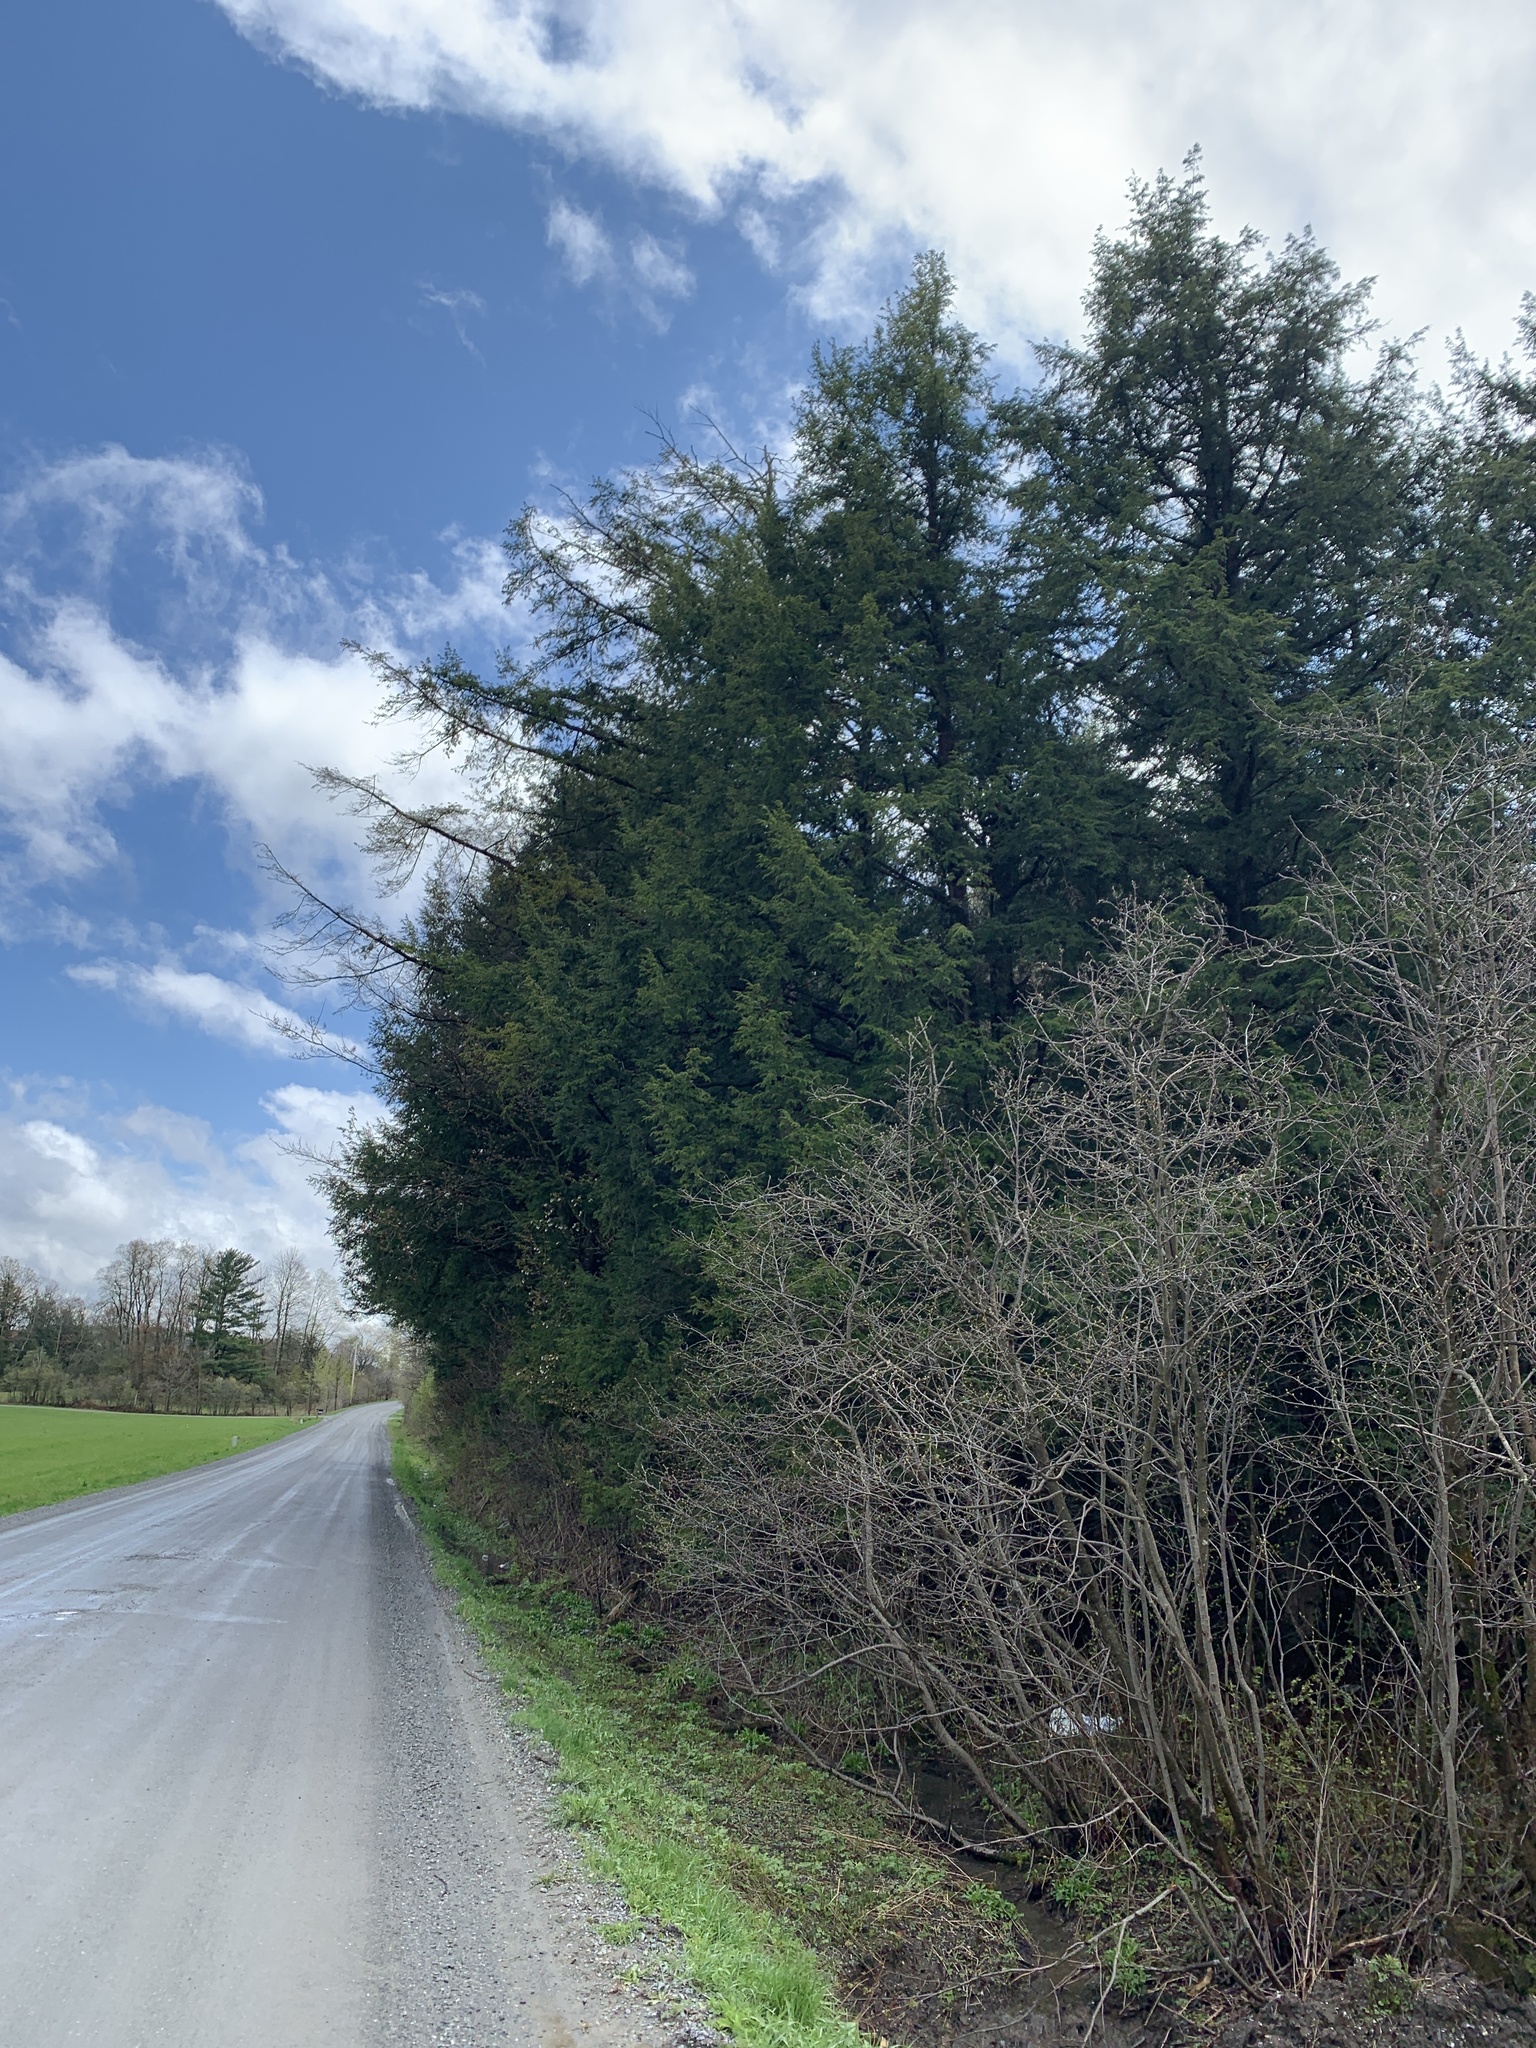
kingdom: Plantae
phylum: Tracheophyta
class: Pinopsida
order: Pinales
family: Pinaceae
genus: Tsuga
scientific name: Tsuga canadensis
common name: Eastern hemlock
